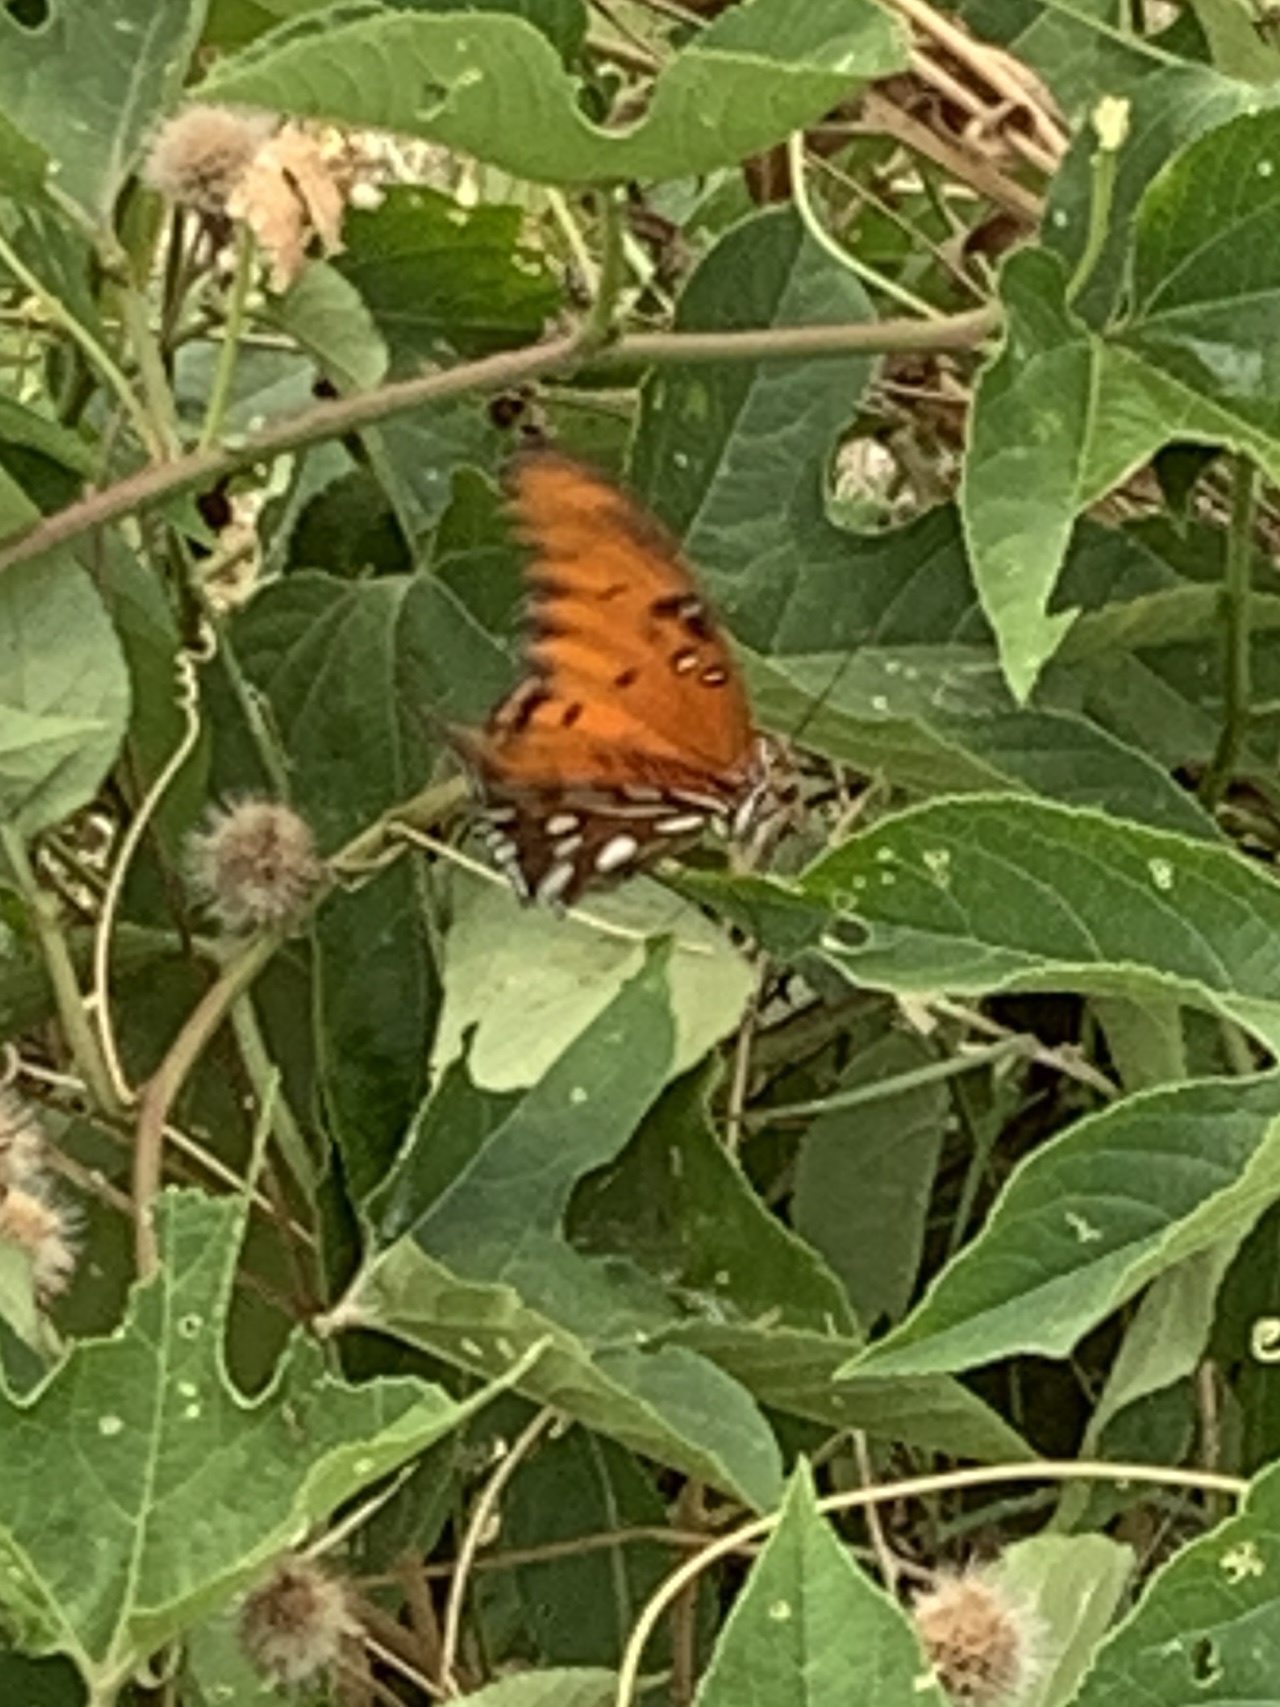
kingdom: Animalia
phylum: Arthropoda
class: Insecta
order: Lepidoptera
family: Nymphalidae
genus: Dione
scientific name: Dione vanillae
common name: Gulf fritillary
